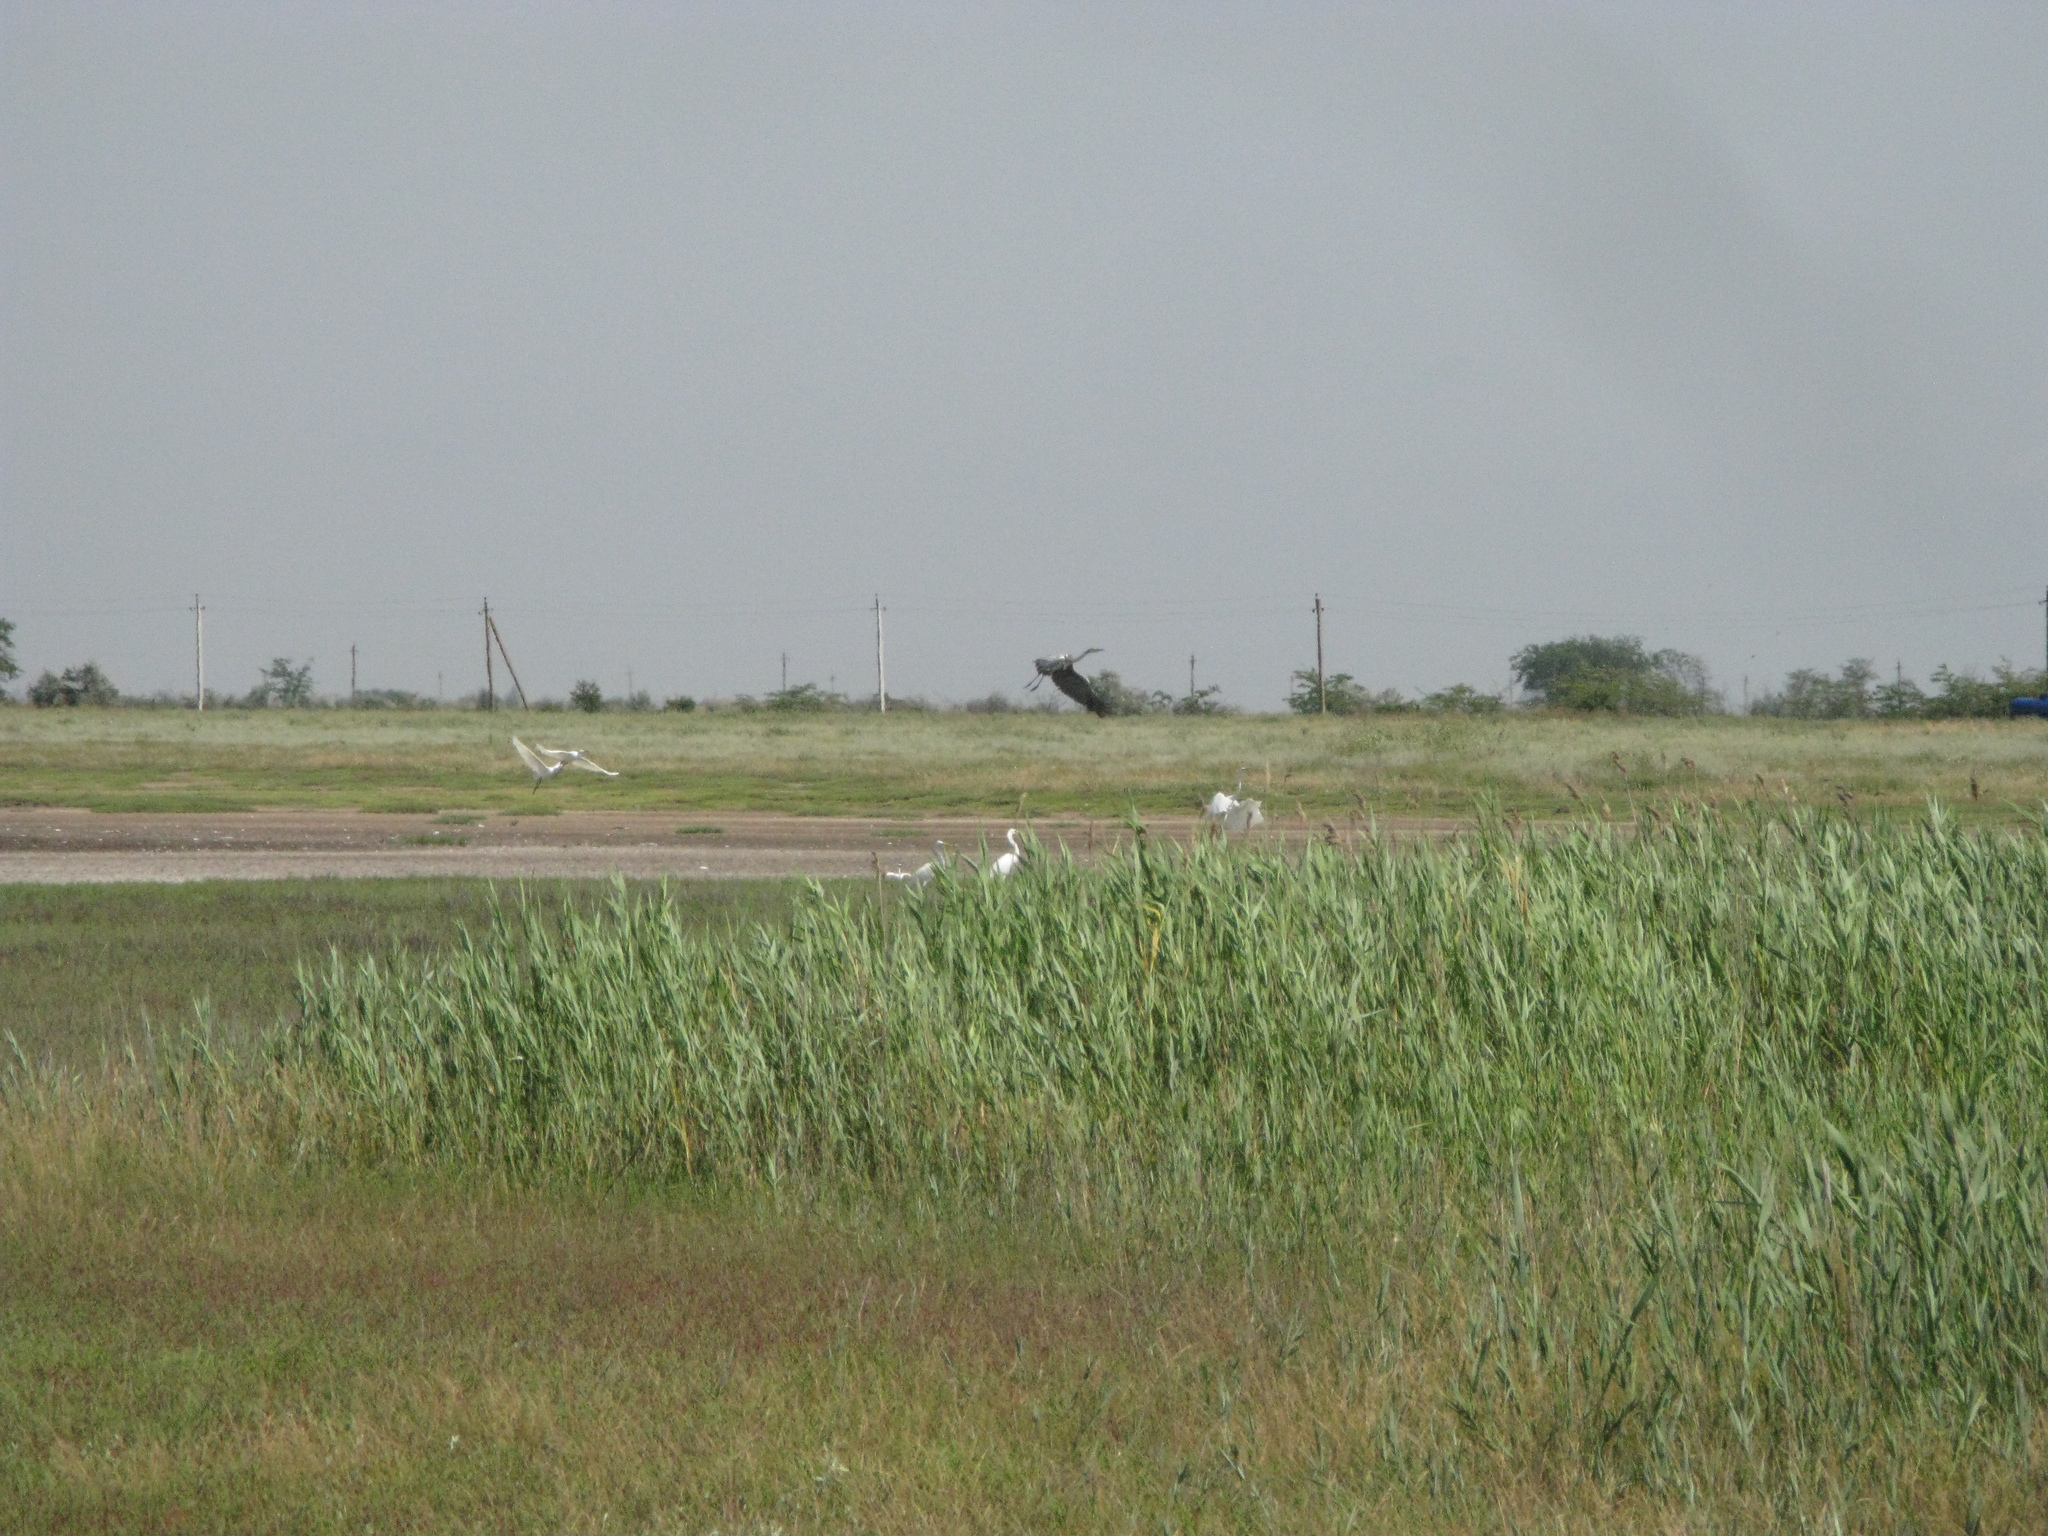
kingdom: Animalia
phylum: Chordata
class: Aves
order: Pelecaniformes
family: Ardeidae
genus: Ardea
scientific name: Ardea cinerea
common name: Grey heron
